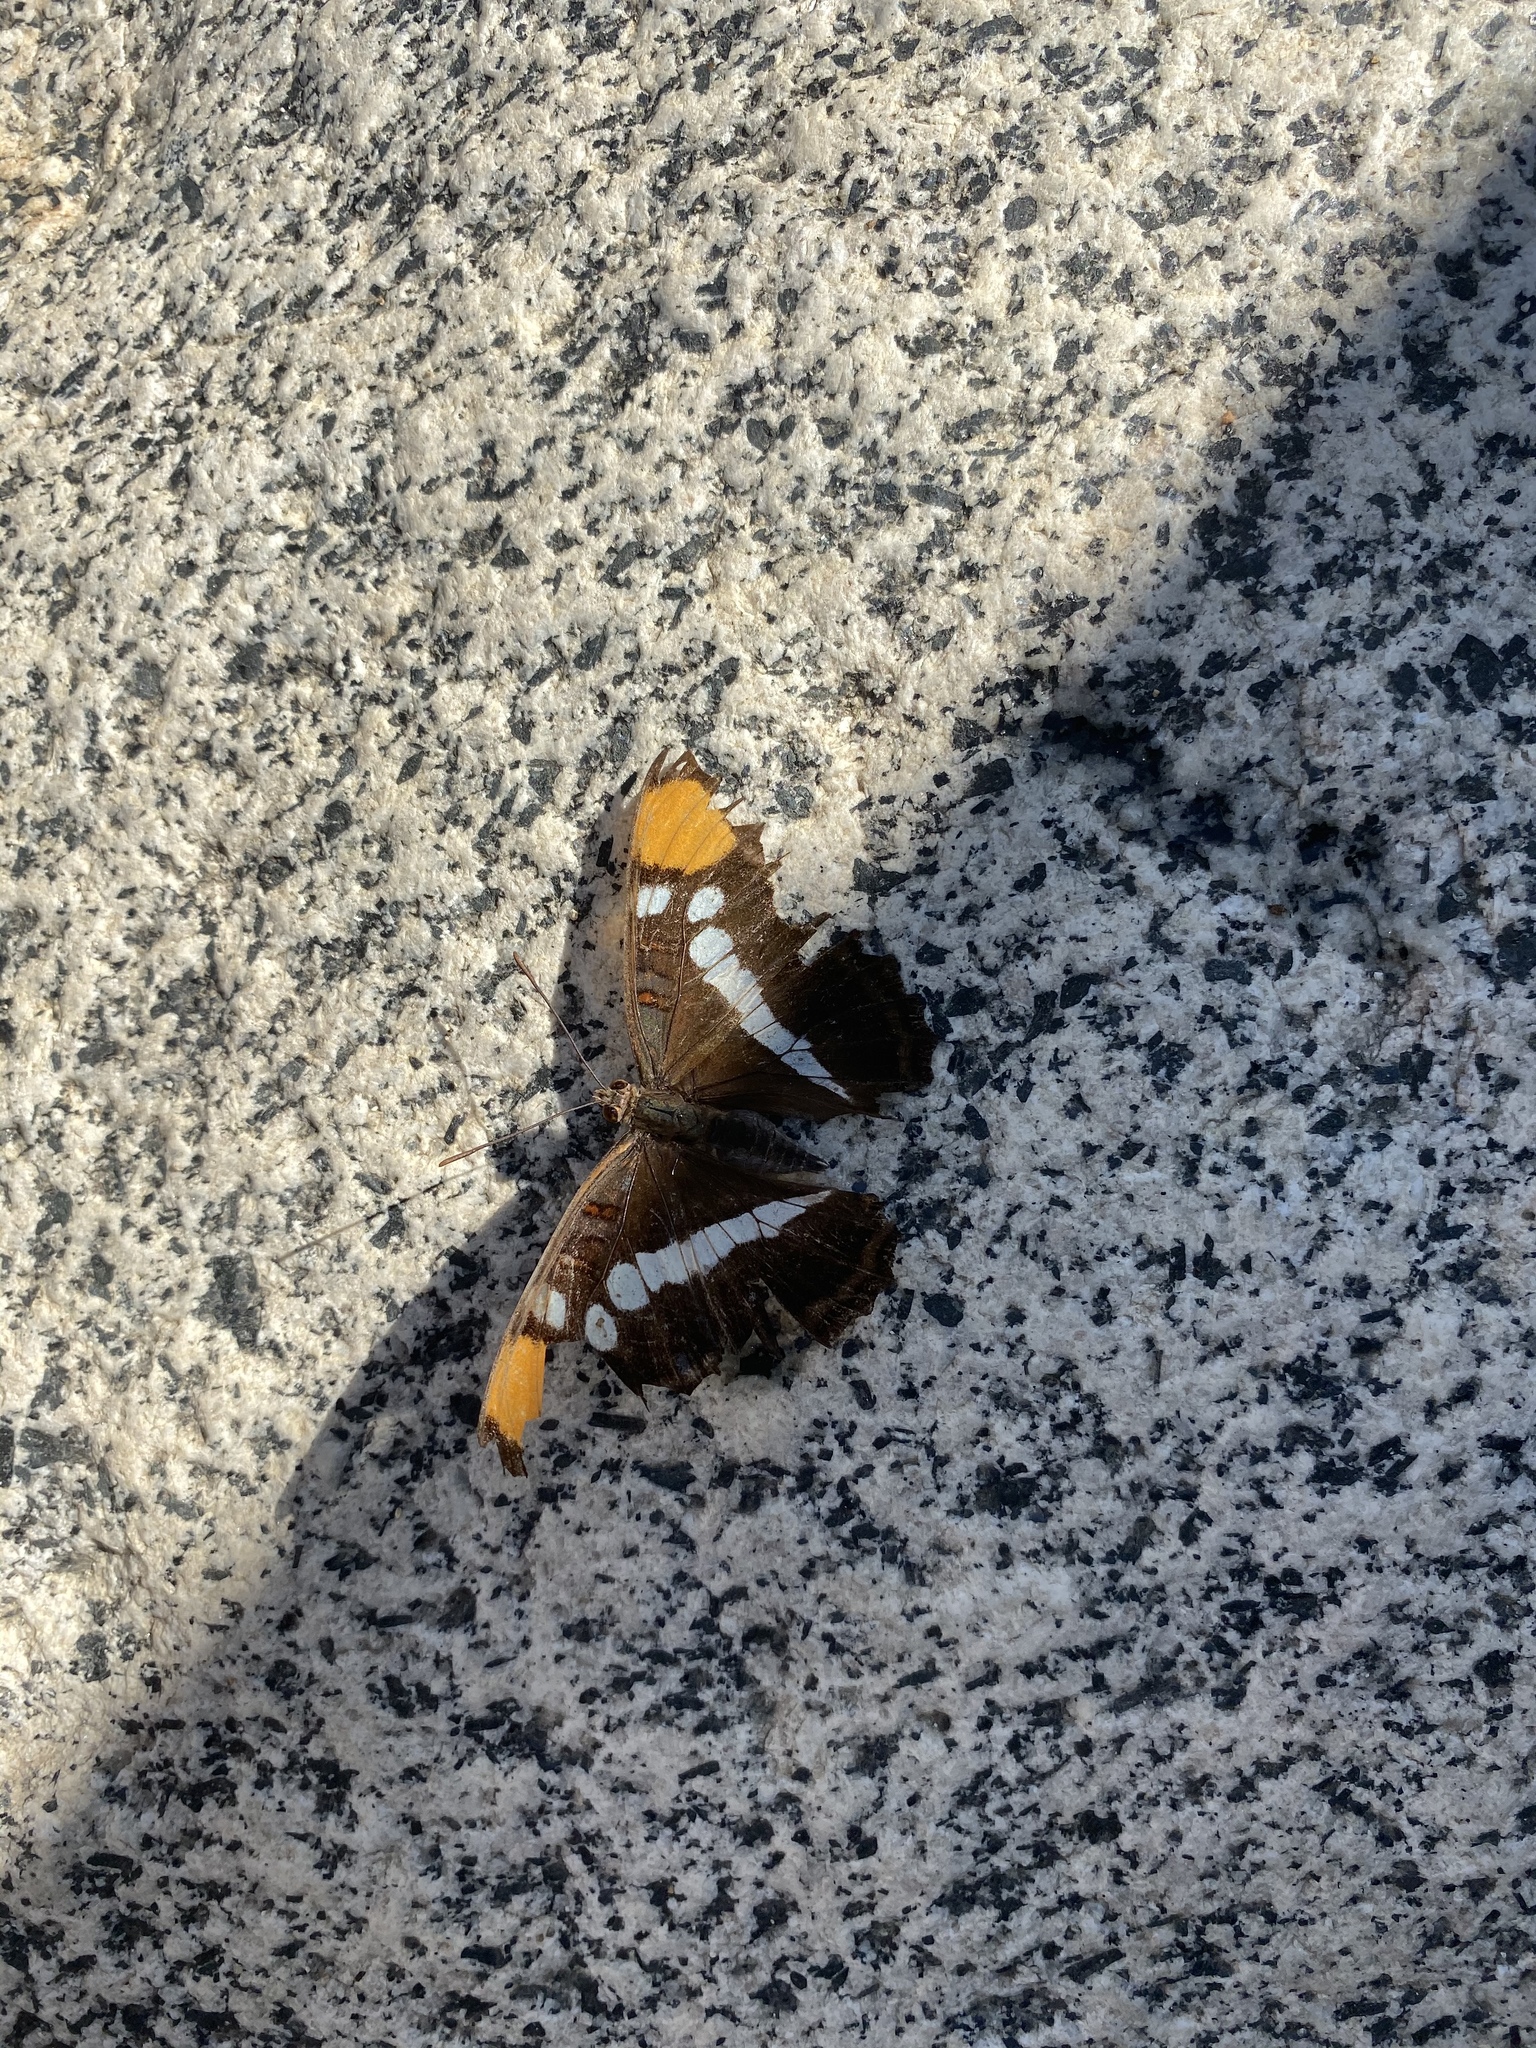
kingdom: Animalia
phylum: Arthropoda
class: Insecta
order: Lepidoptera
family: Nymphalidae
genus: Limenitis
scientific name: Limenitis bredowii
